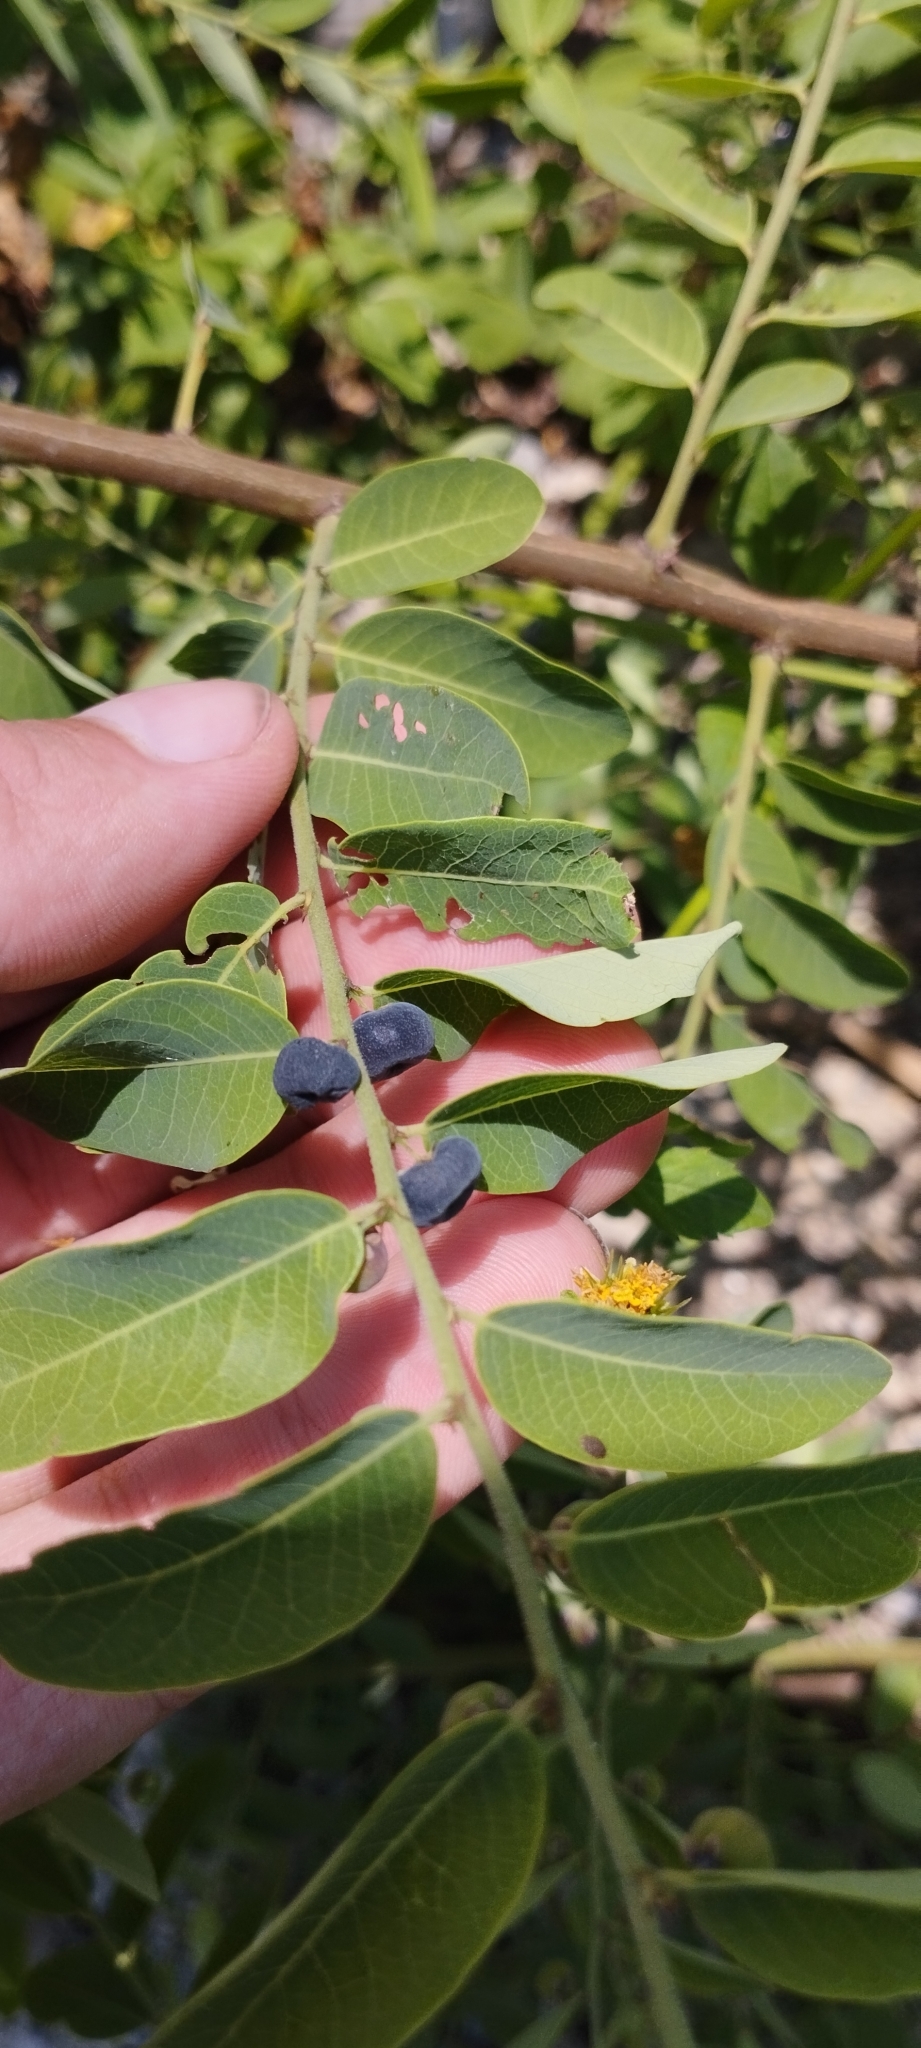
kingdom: Plantae
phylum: Tracheophyta
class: Magnoliopsida
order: Malpighiales
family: Phyllanthaceae
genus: Phyllanthus
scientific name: Phyllanthus reticulatus
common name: Potato bush
